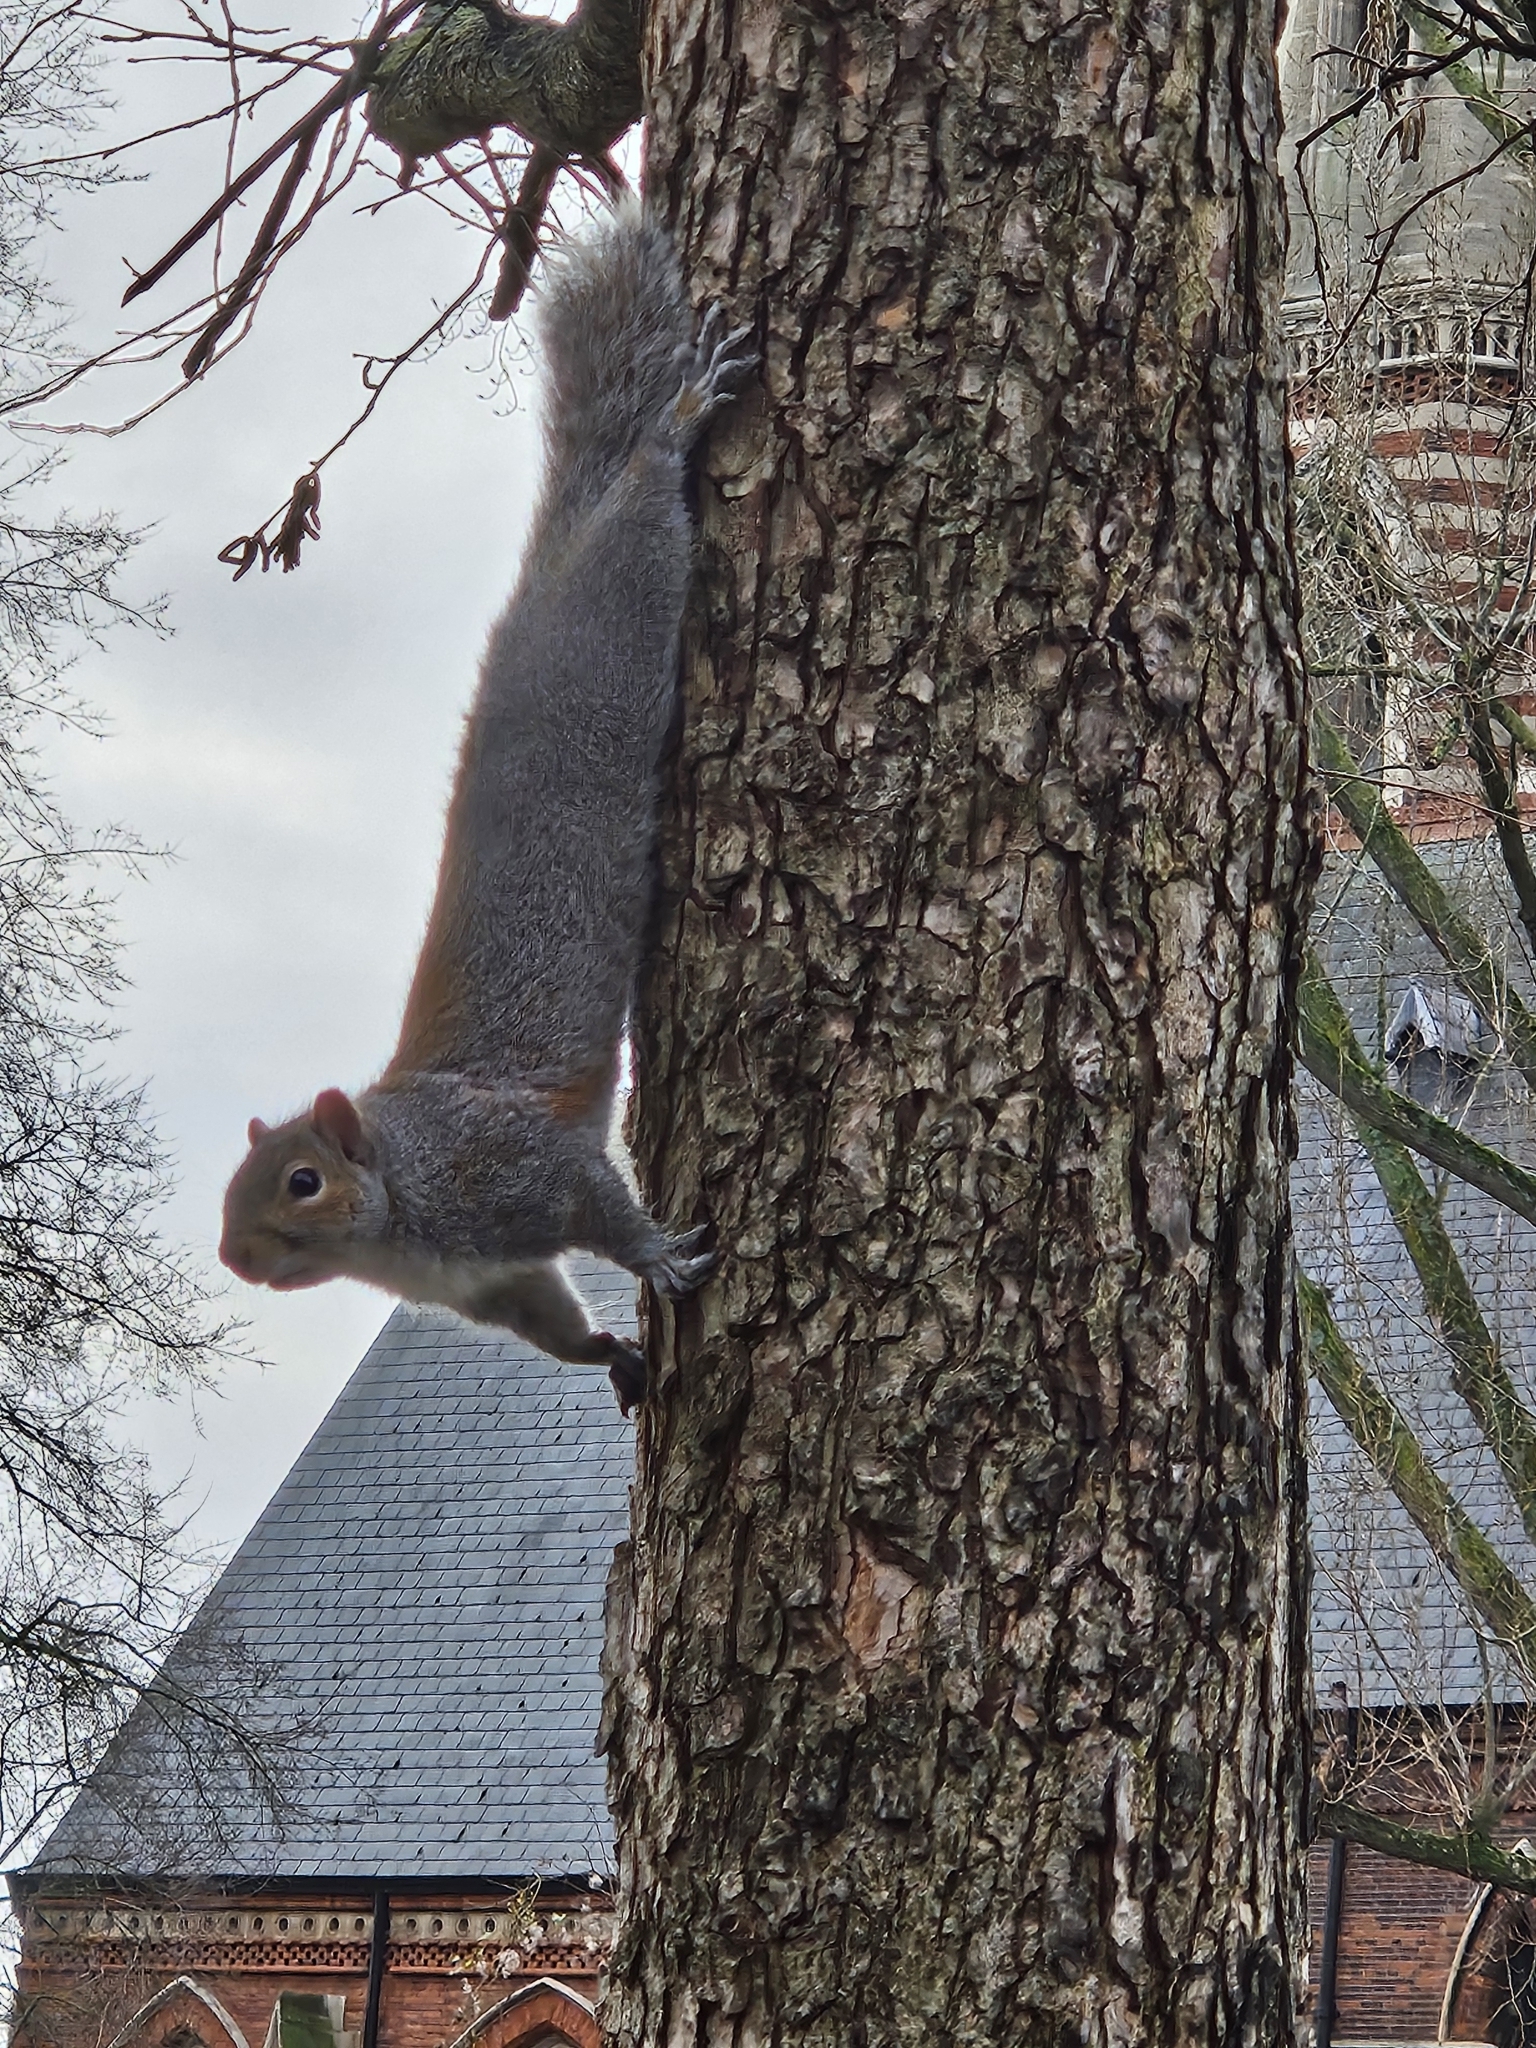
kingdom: Animalia
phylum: Chordata
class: Mammalia
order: Rodentia
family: Sciuridae
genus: Sciurus
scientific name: Sciurus carolinensis
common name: Eastern gray squirrel
